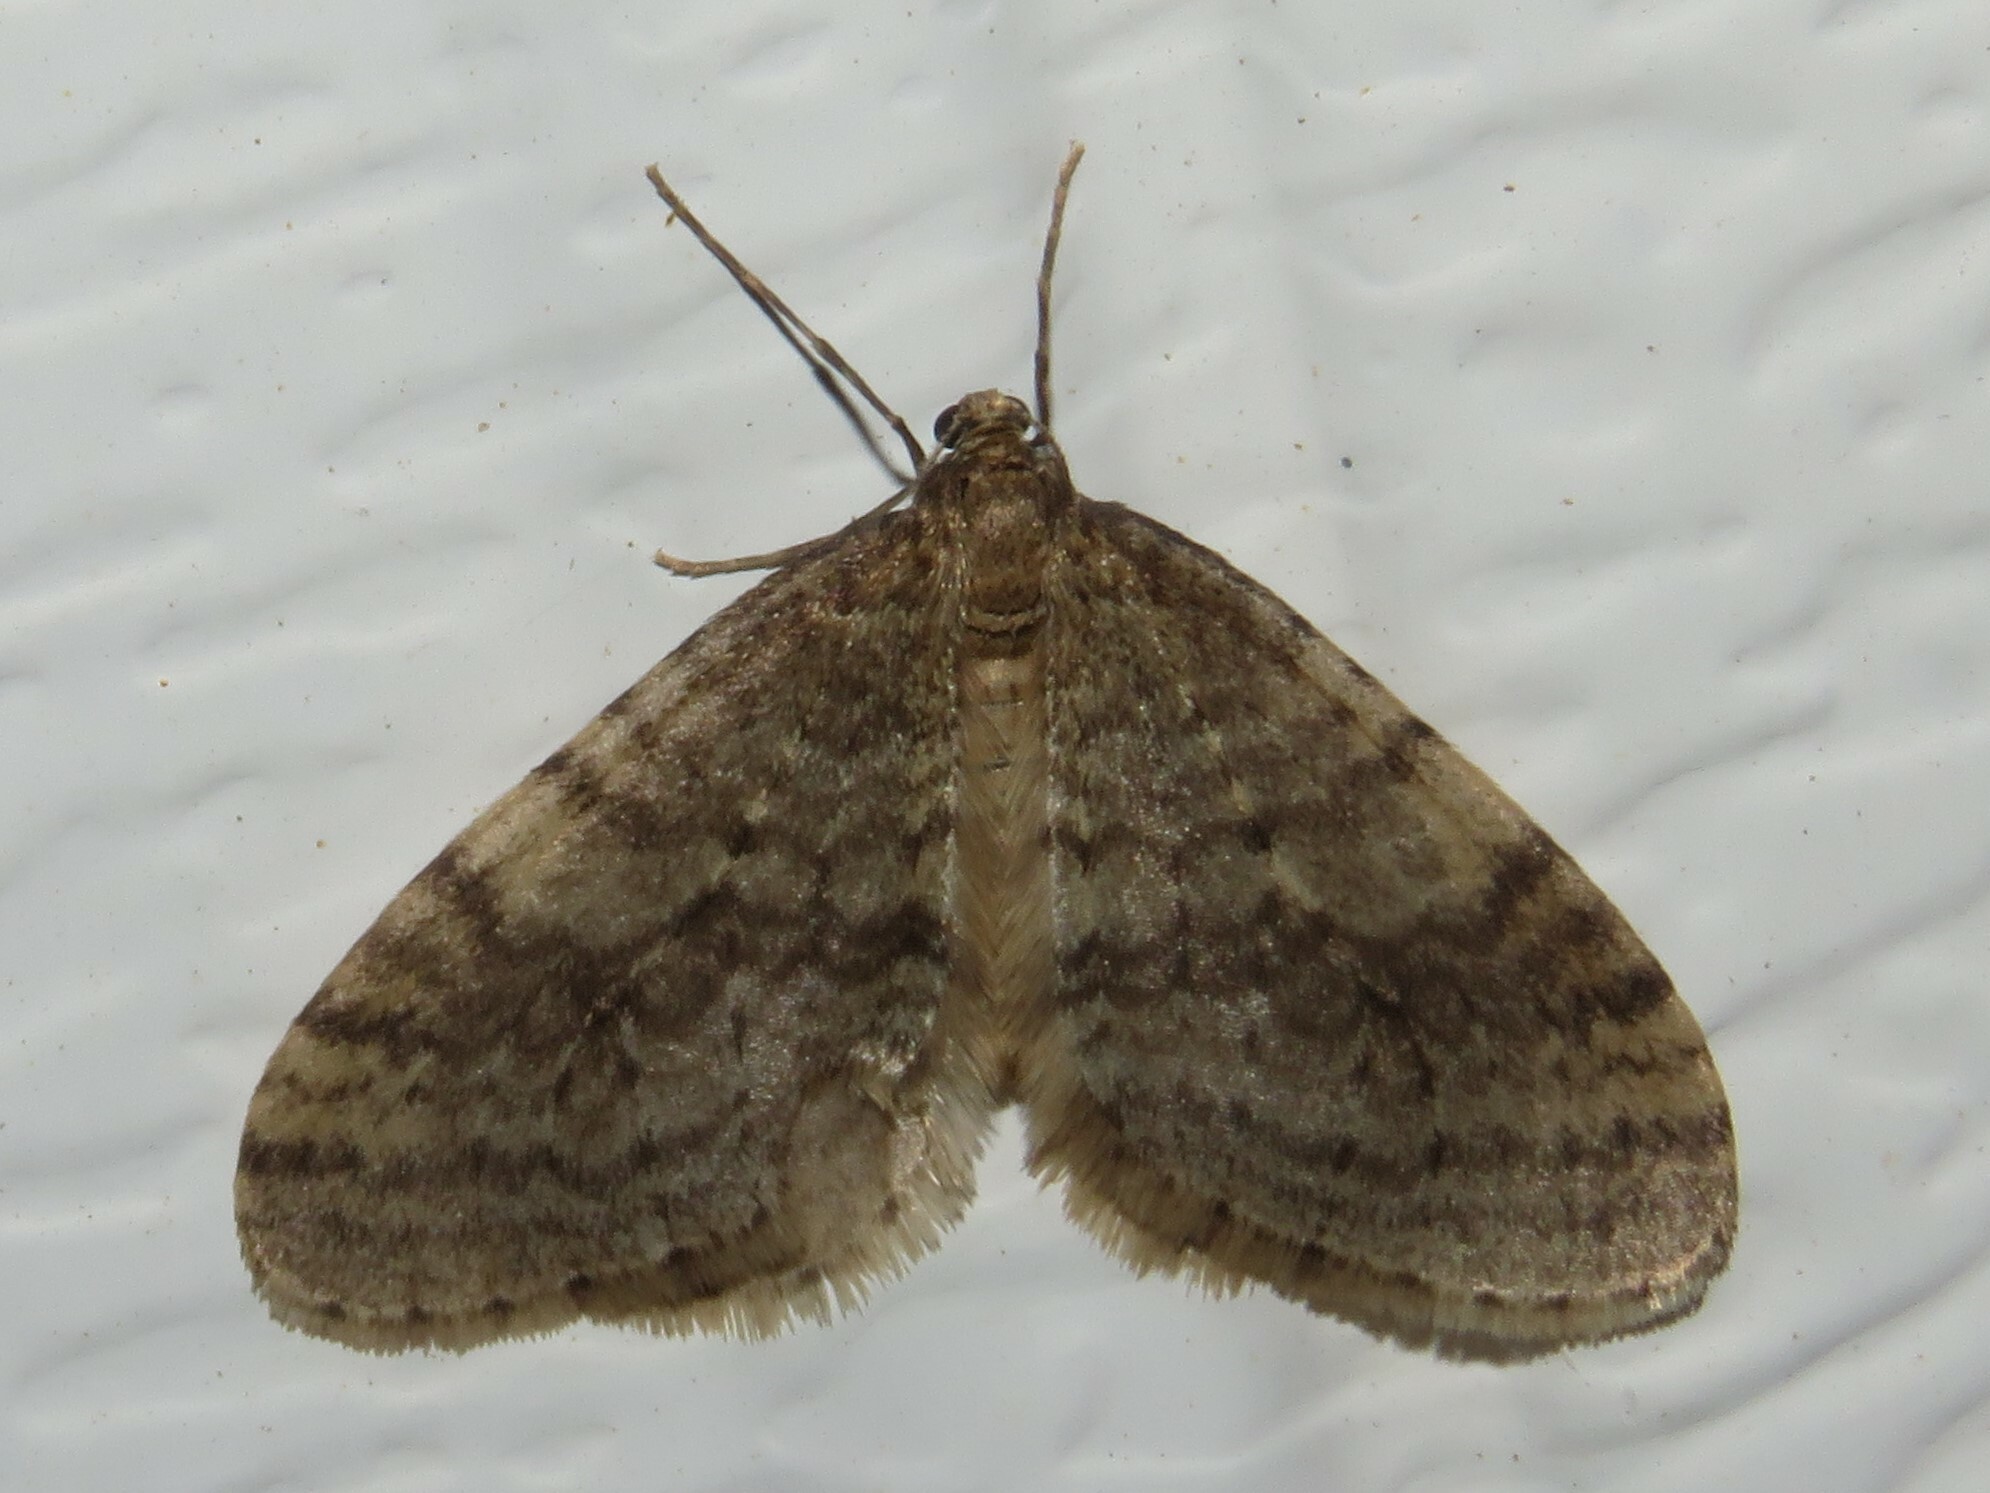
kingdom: Animalia
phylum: Arthropoda
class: Insecta
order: Lepidoptera
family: Geometridae
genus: Operophtera
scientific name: Operophtera bruceata
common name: Bruce spanworm
